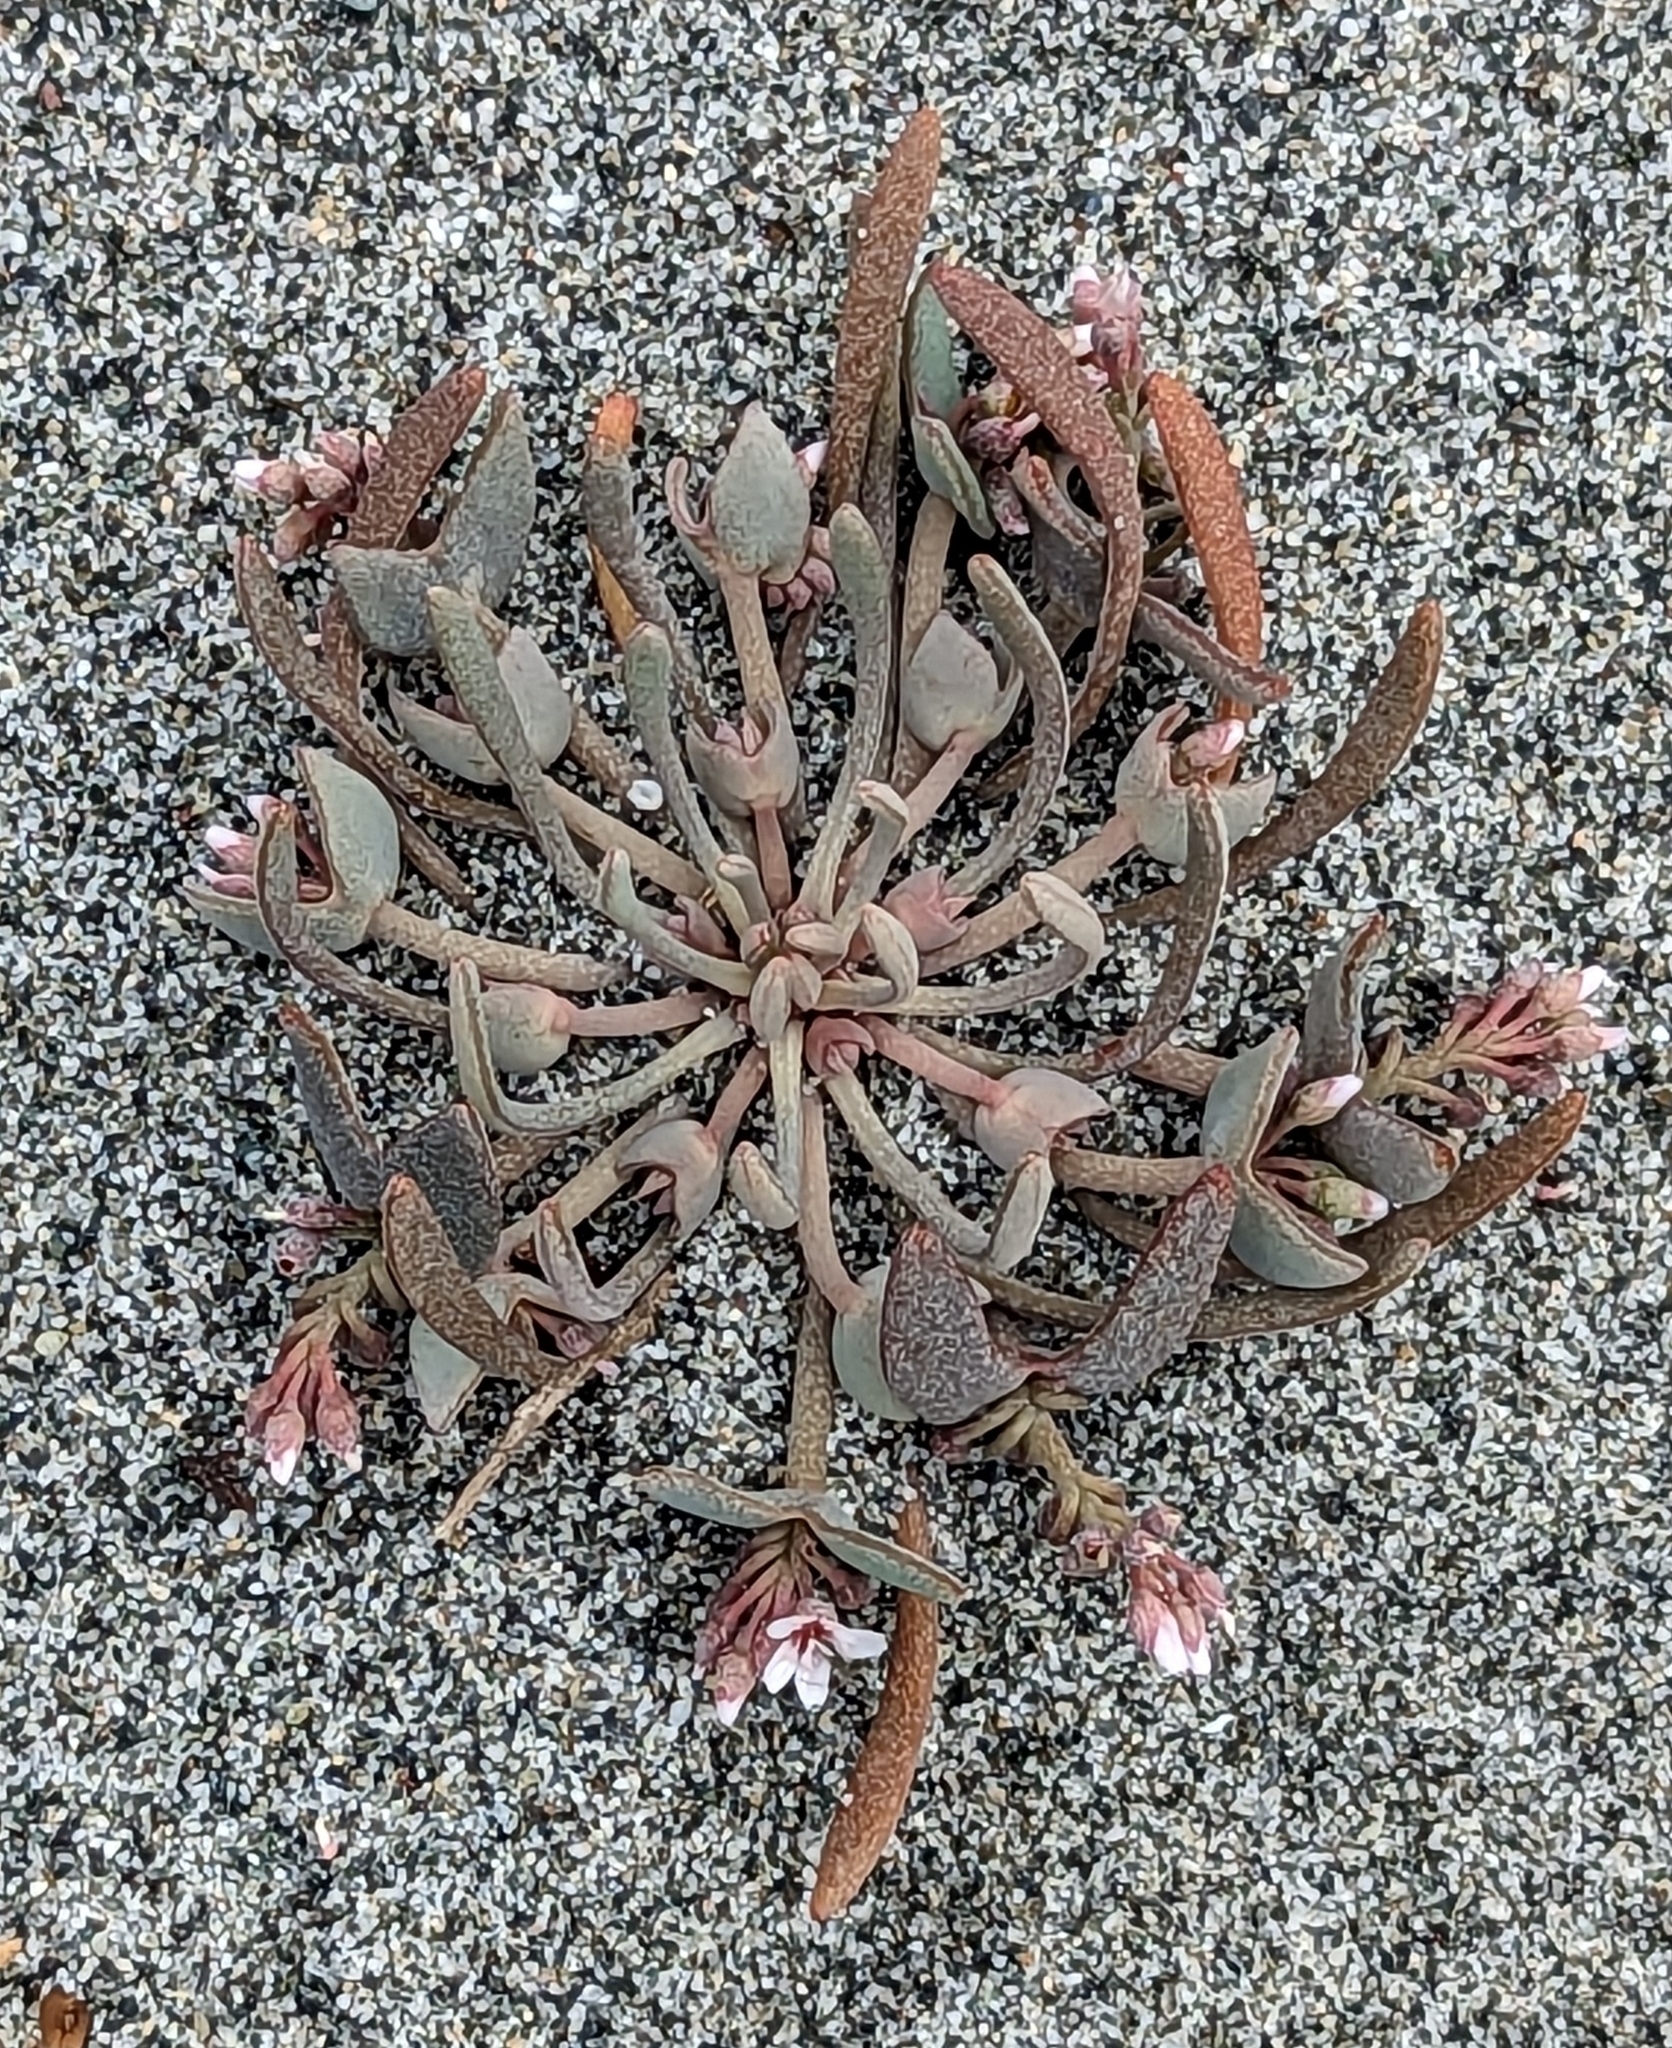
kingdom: Plantae
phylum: Tracheophyta
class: Magnoliopsida
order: Caryophyllales
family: Montiaceae
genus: Claytonia
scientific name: Claytonia exigua
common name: Pale spring beauty
